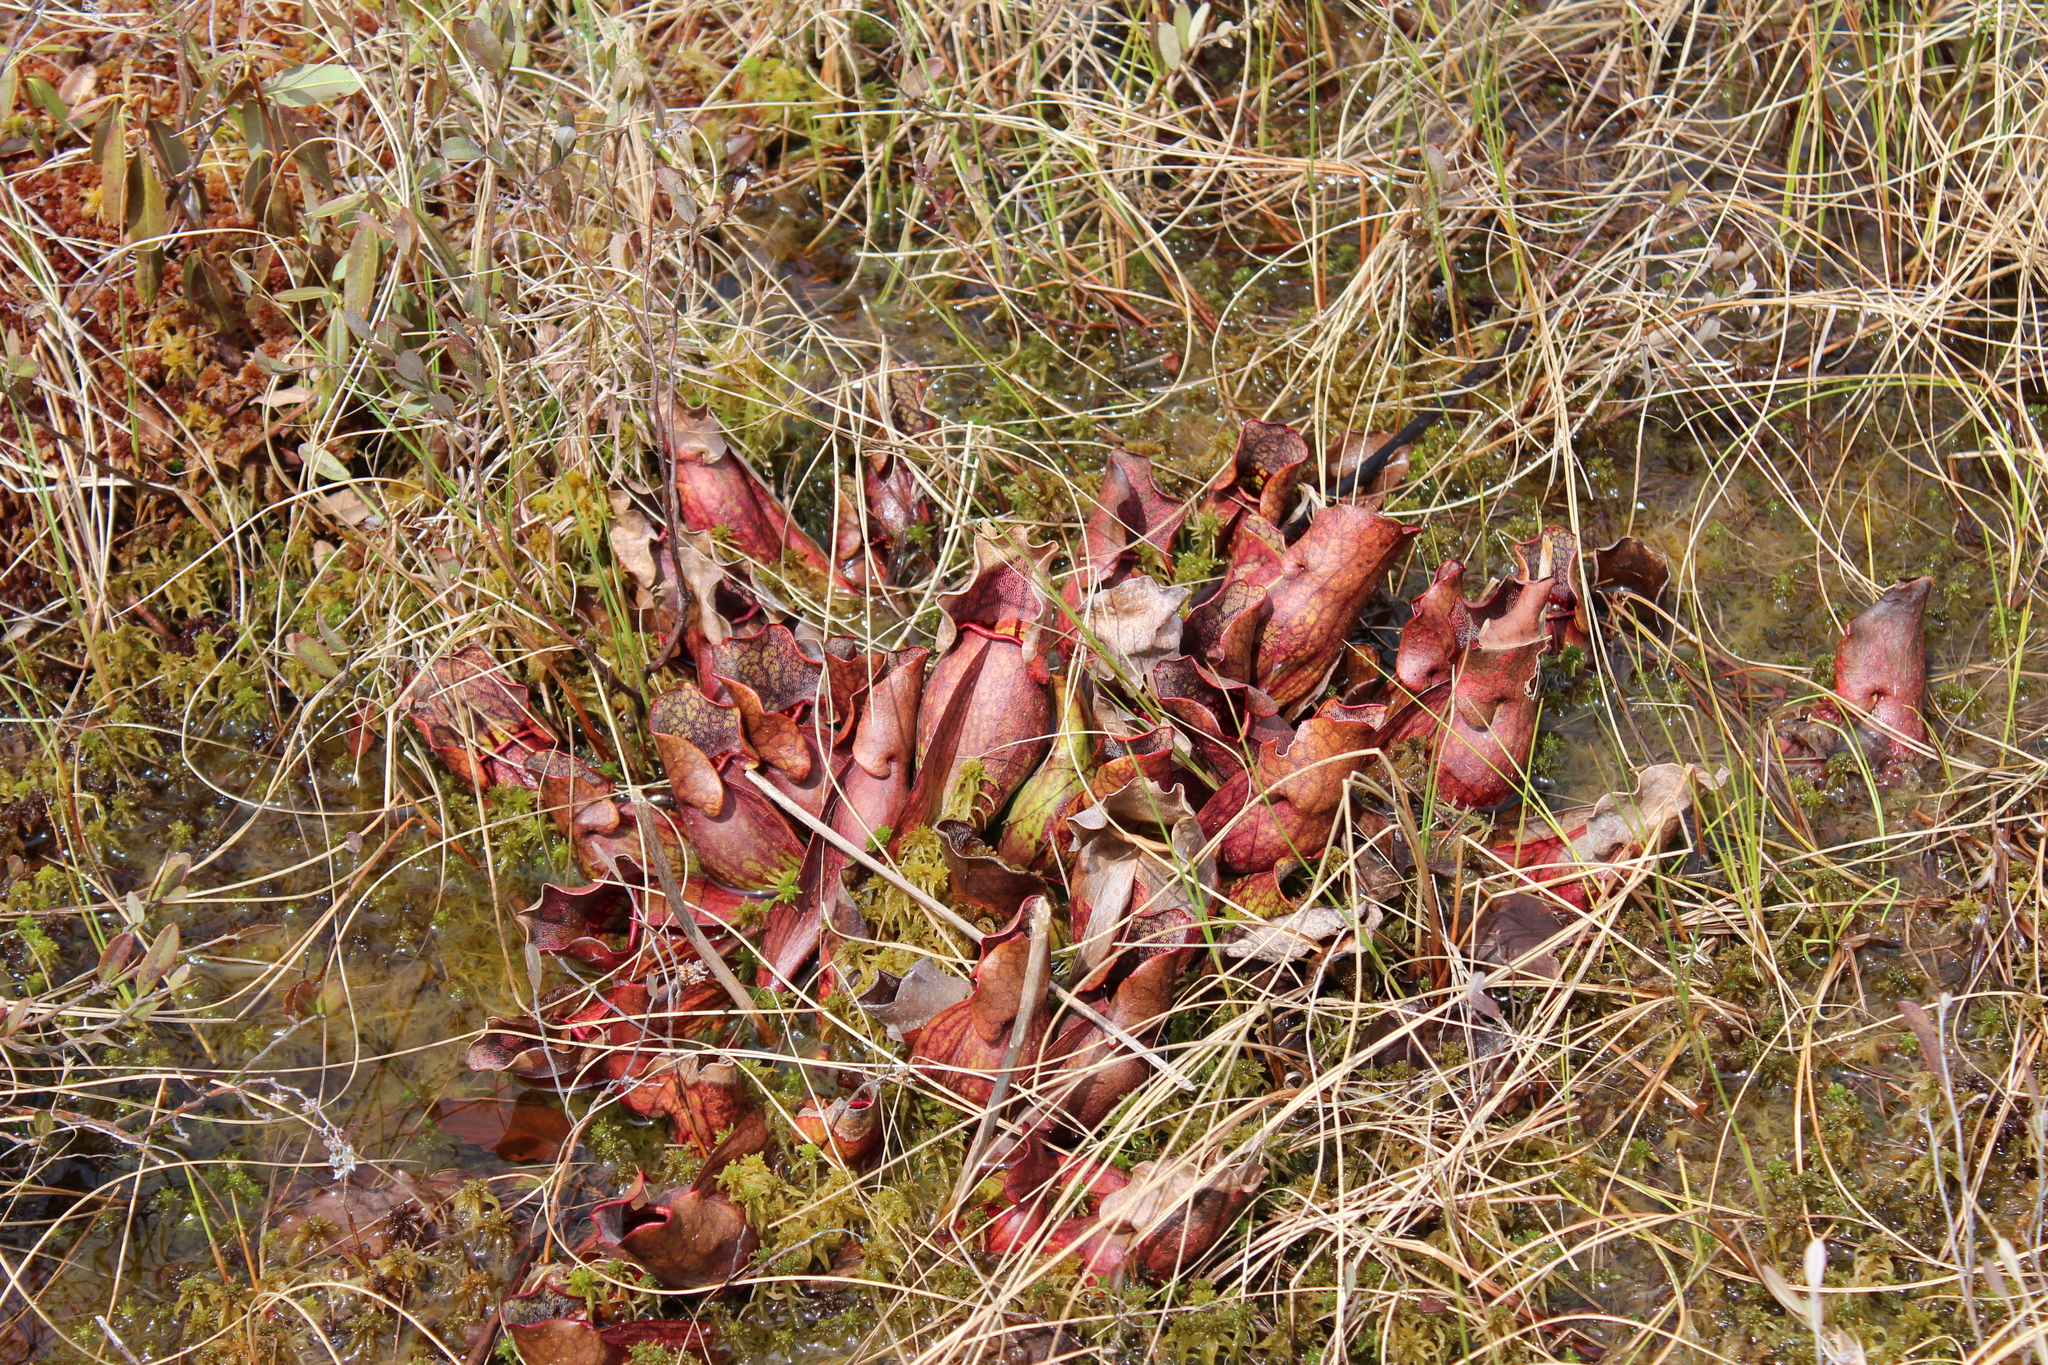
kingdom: Plantae
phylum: Tracheophyta
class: Magnoliopsida
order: Ericales
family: Sarraceniaceae
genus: Sarracenia
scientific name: Sarracenia purpurea
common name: Pitcherplant
